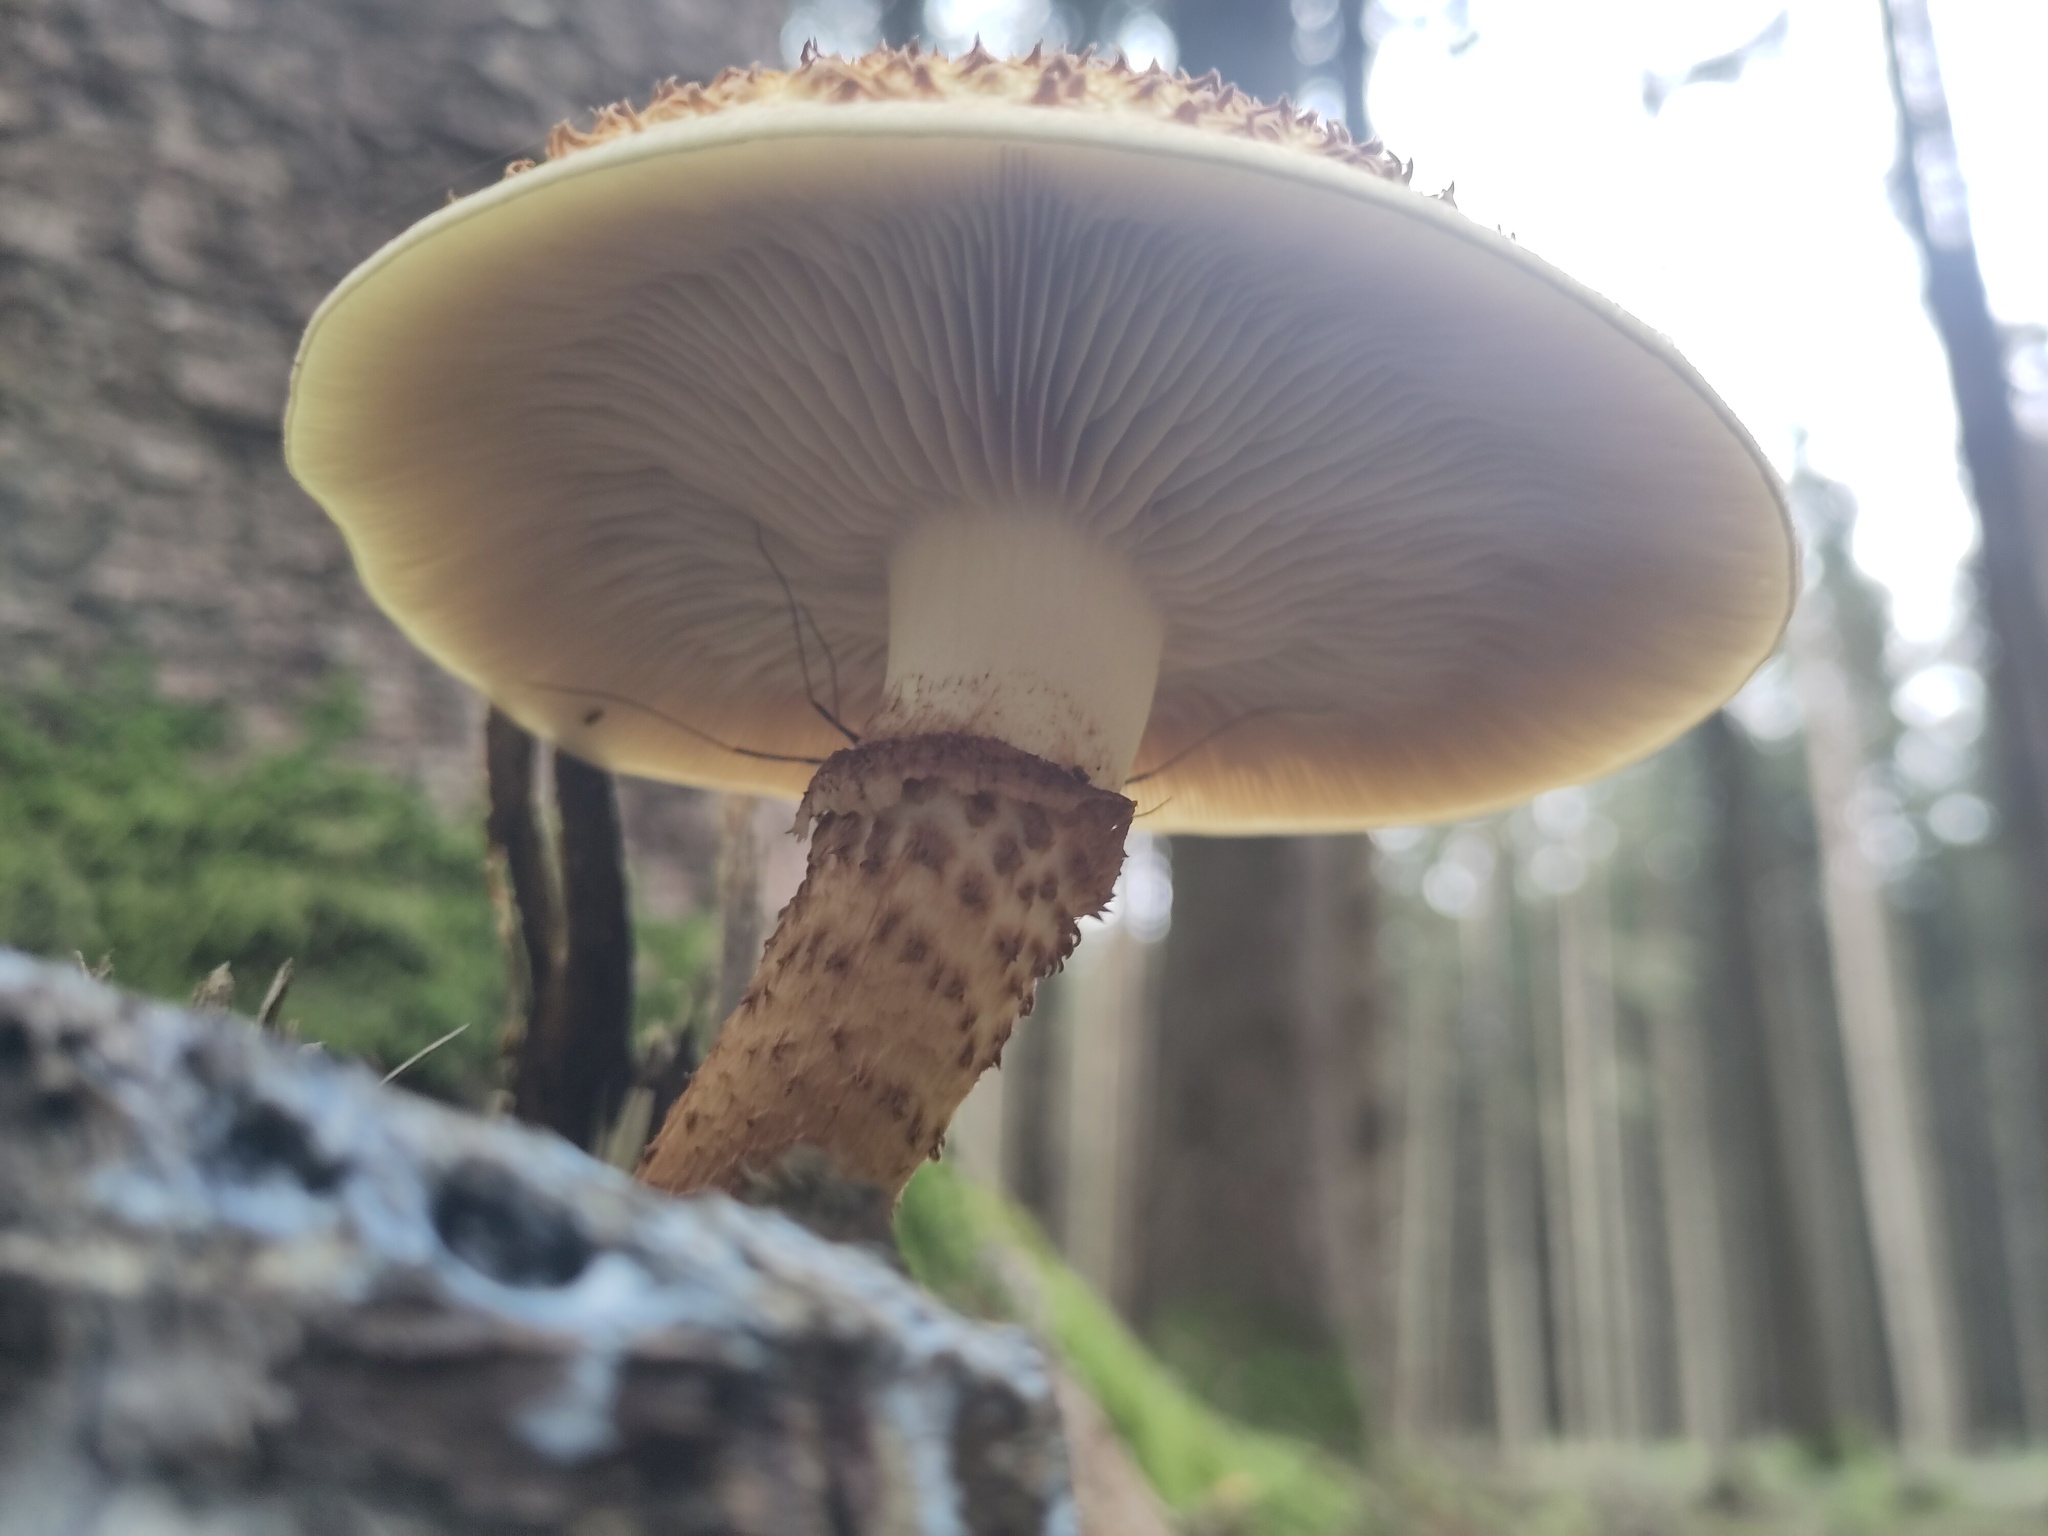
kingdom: Fungi
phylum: Basidiomycota
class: Agaricomycetes
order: Agaricales
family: Strophariaceae
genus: Pholiota
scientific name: Pholiota squarrosa
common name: Shaggy pholiota
